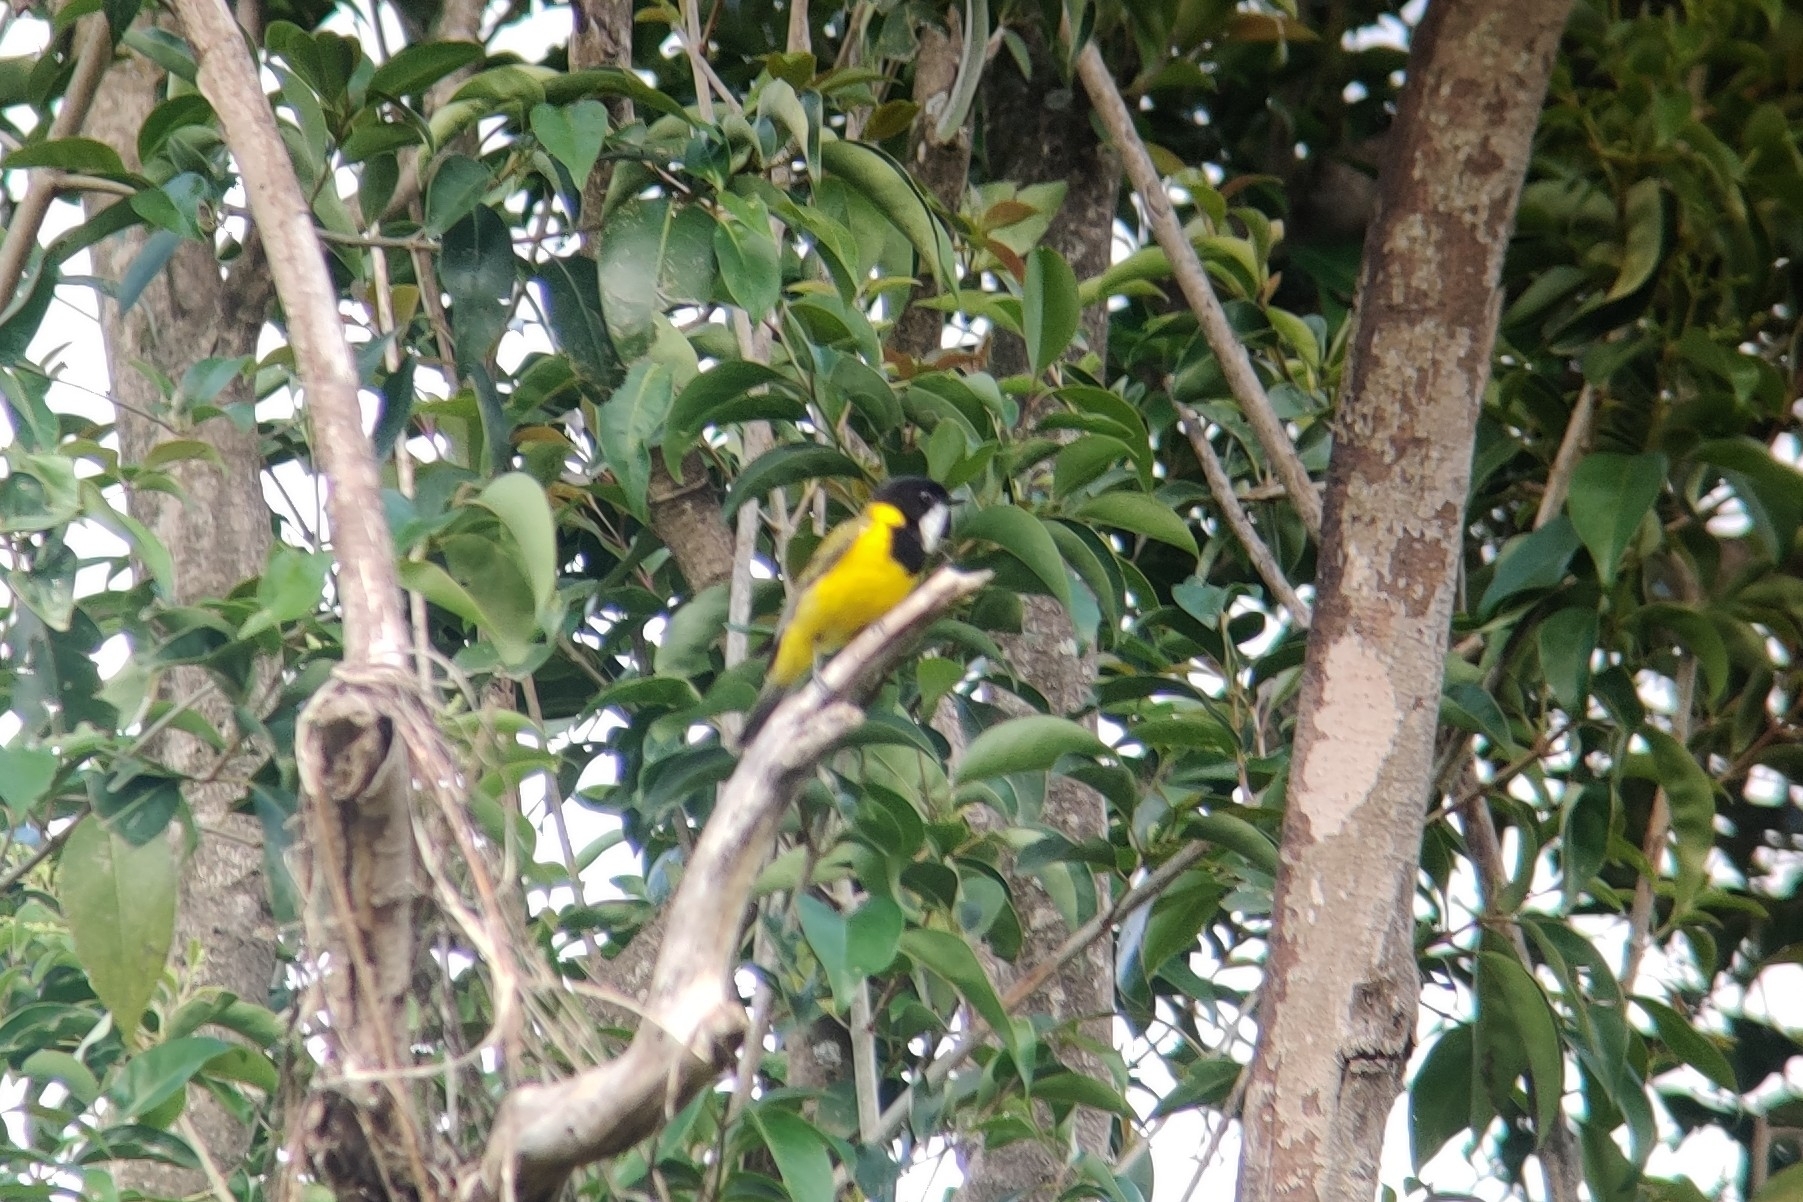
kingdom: Animalia
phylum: Chordata
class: Aves
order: Passeriformes
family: Pachycephalidae
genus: Pachycephala
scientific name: Pachycephala pectoralis
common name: Australian golden whistler
